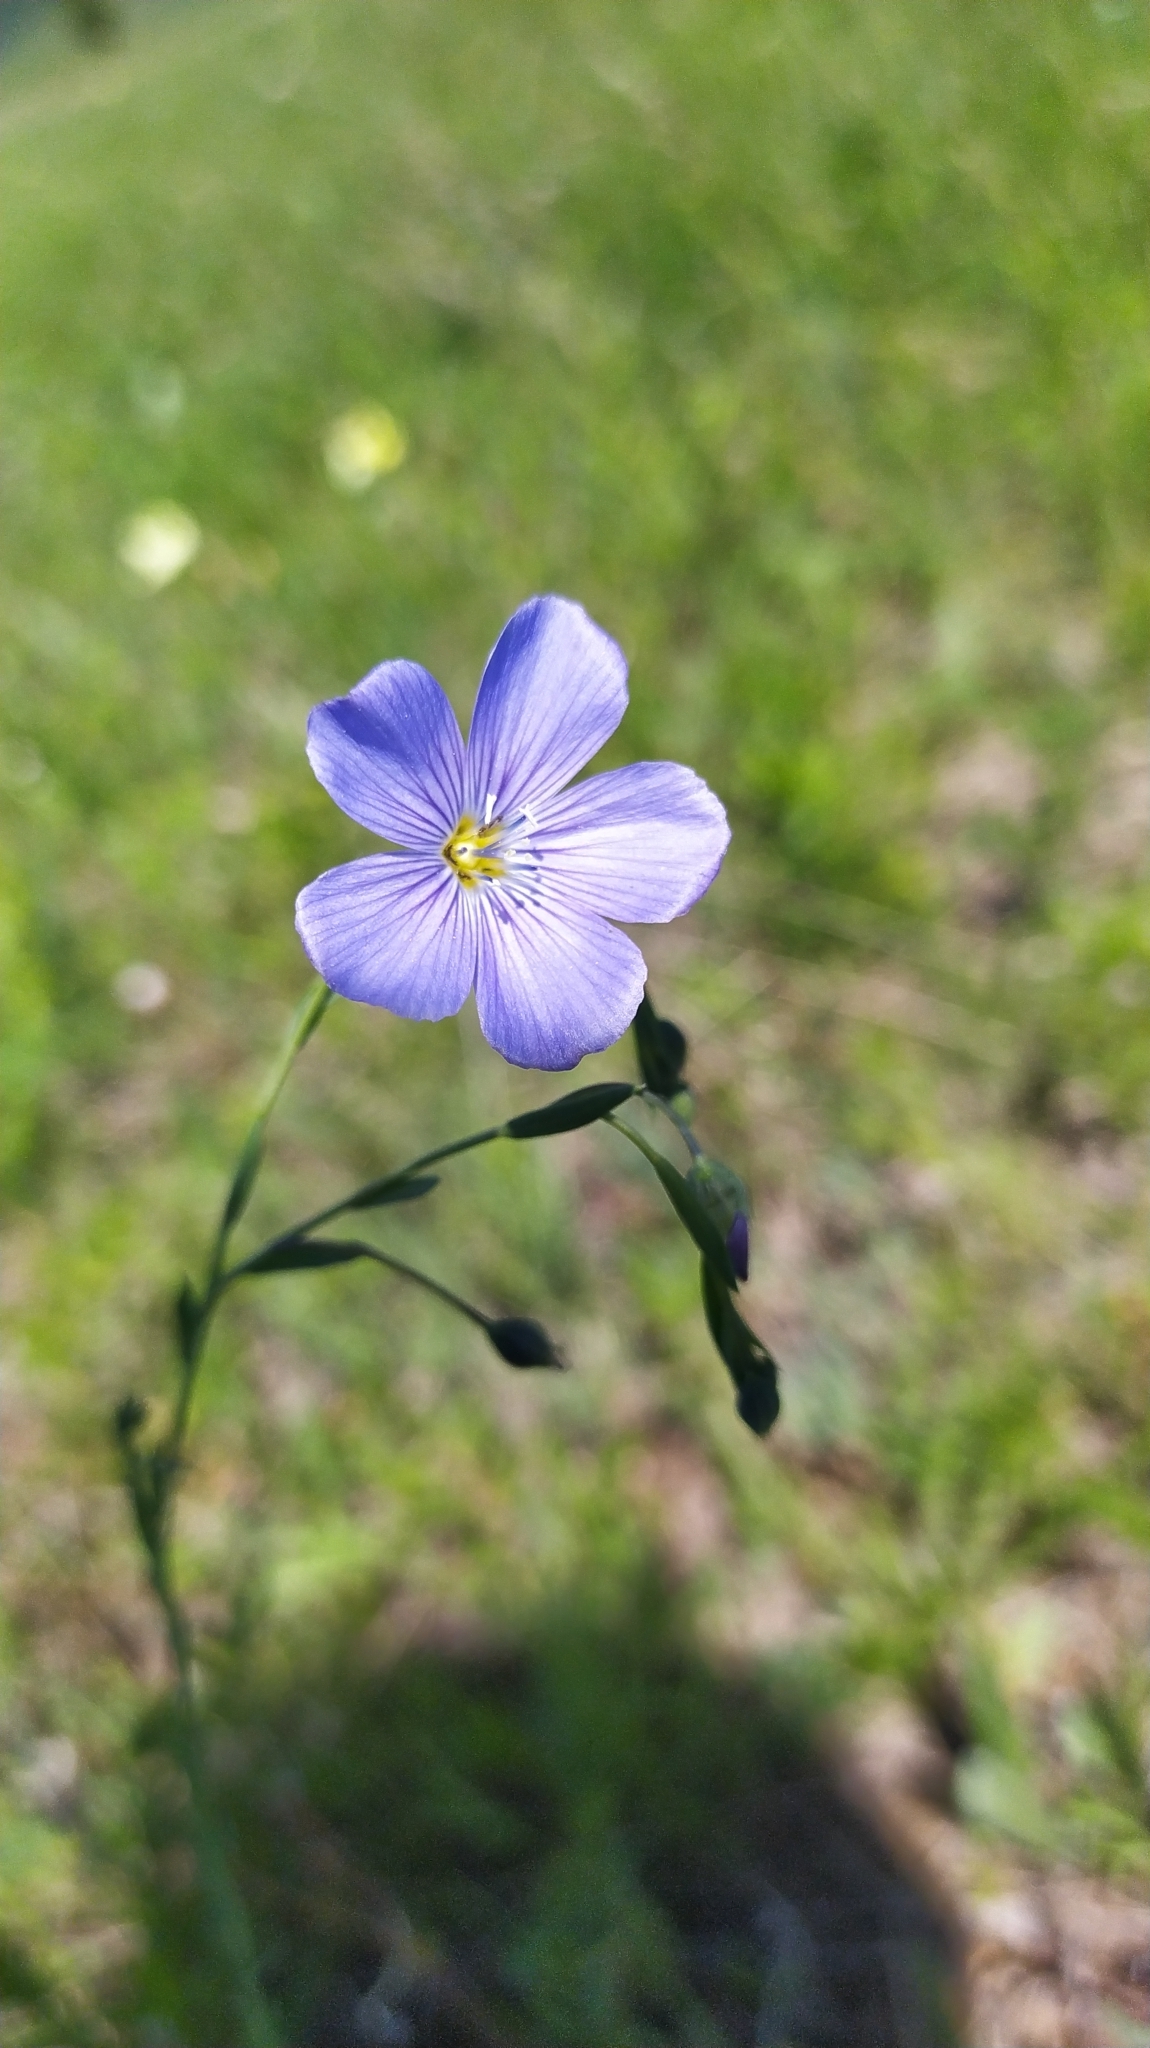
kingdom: Plantae
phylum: Tracheophyta
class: Magnoliopsida
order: Malpighiales
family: Linaceae
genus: Linum
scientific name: Linum nutans
